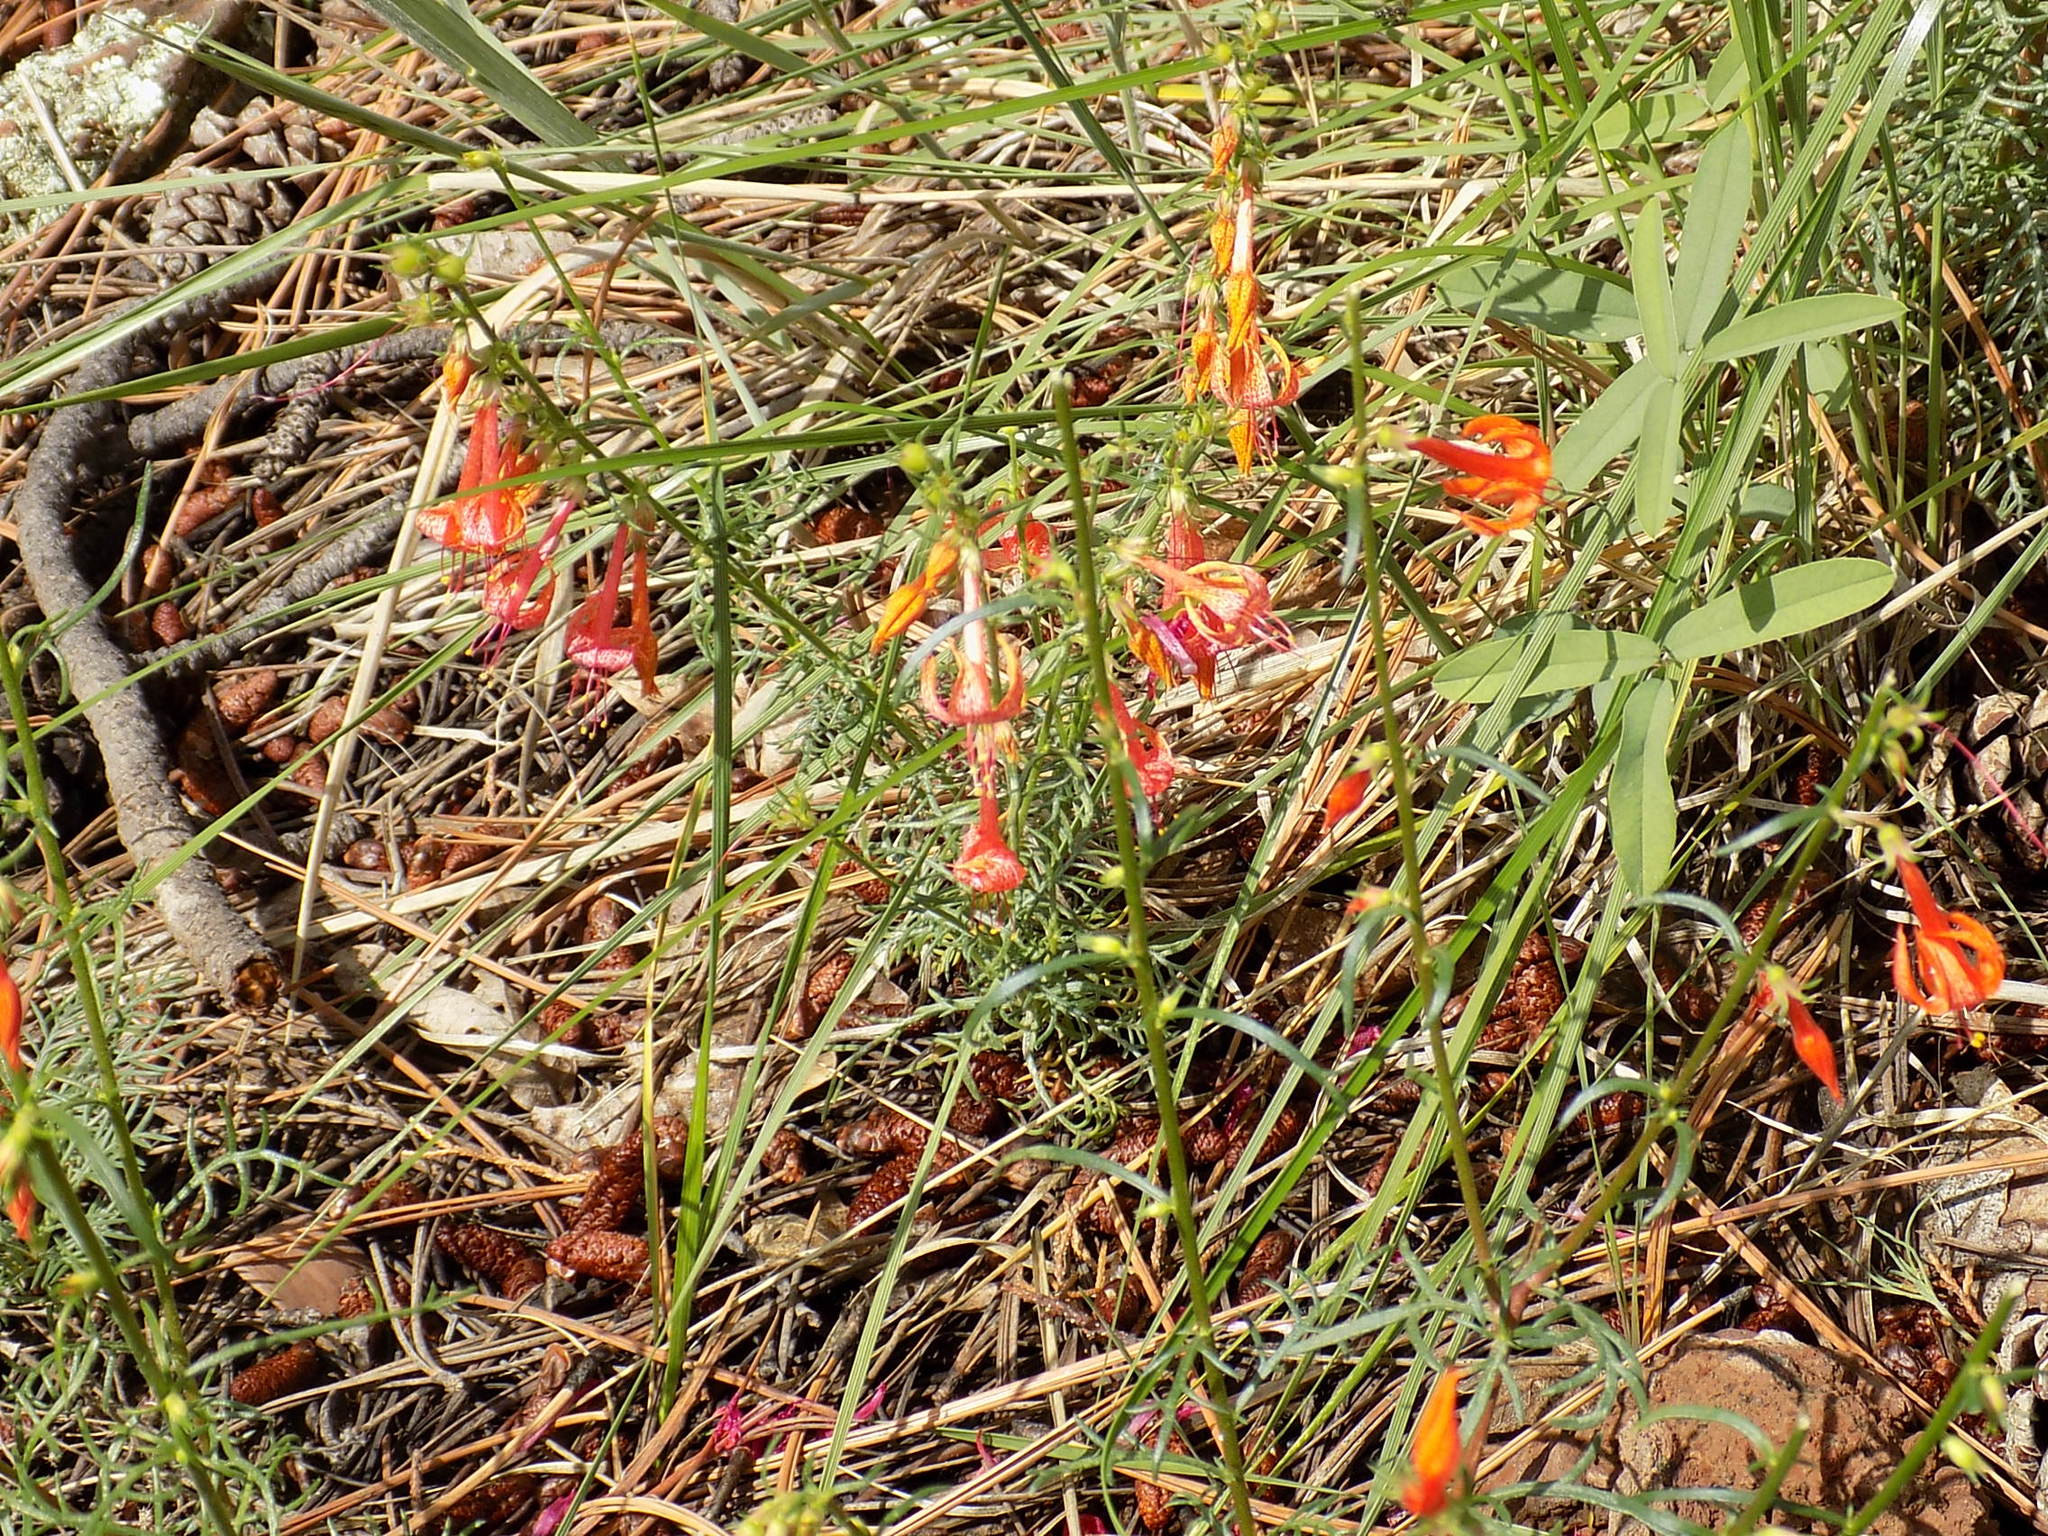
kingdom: Plantae
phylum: Tracheophyta
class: Magnoliopsida
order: Ericales
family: Polemoniaceae
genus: Ipomopsis
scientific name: Ipomopsis aggregata
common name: Scarlet gilia
